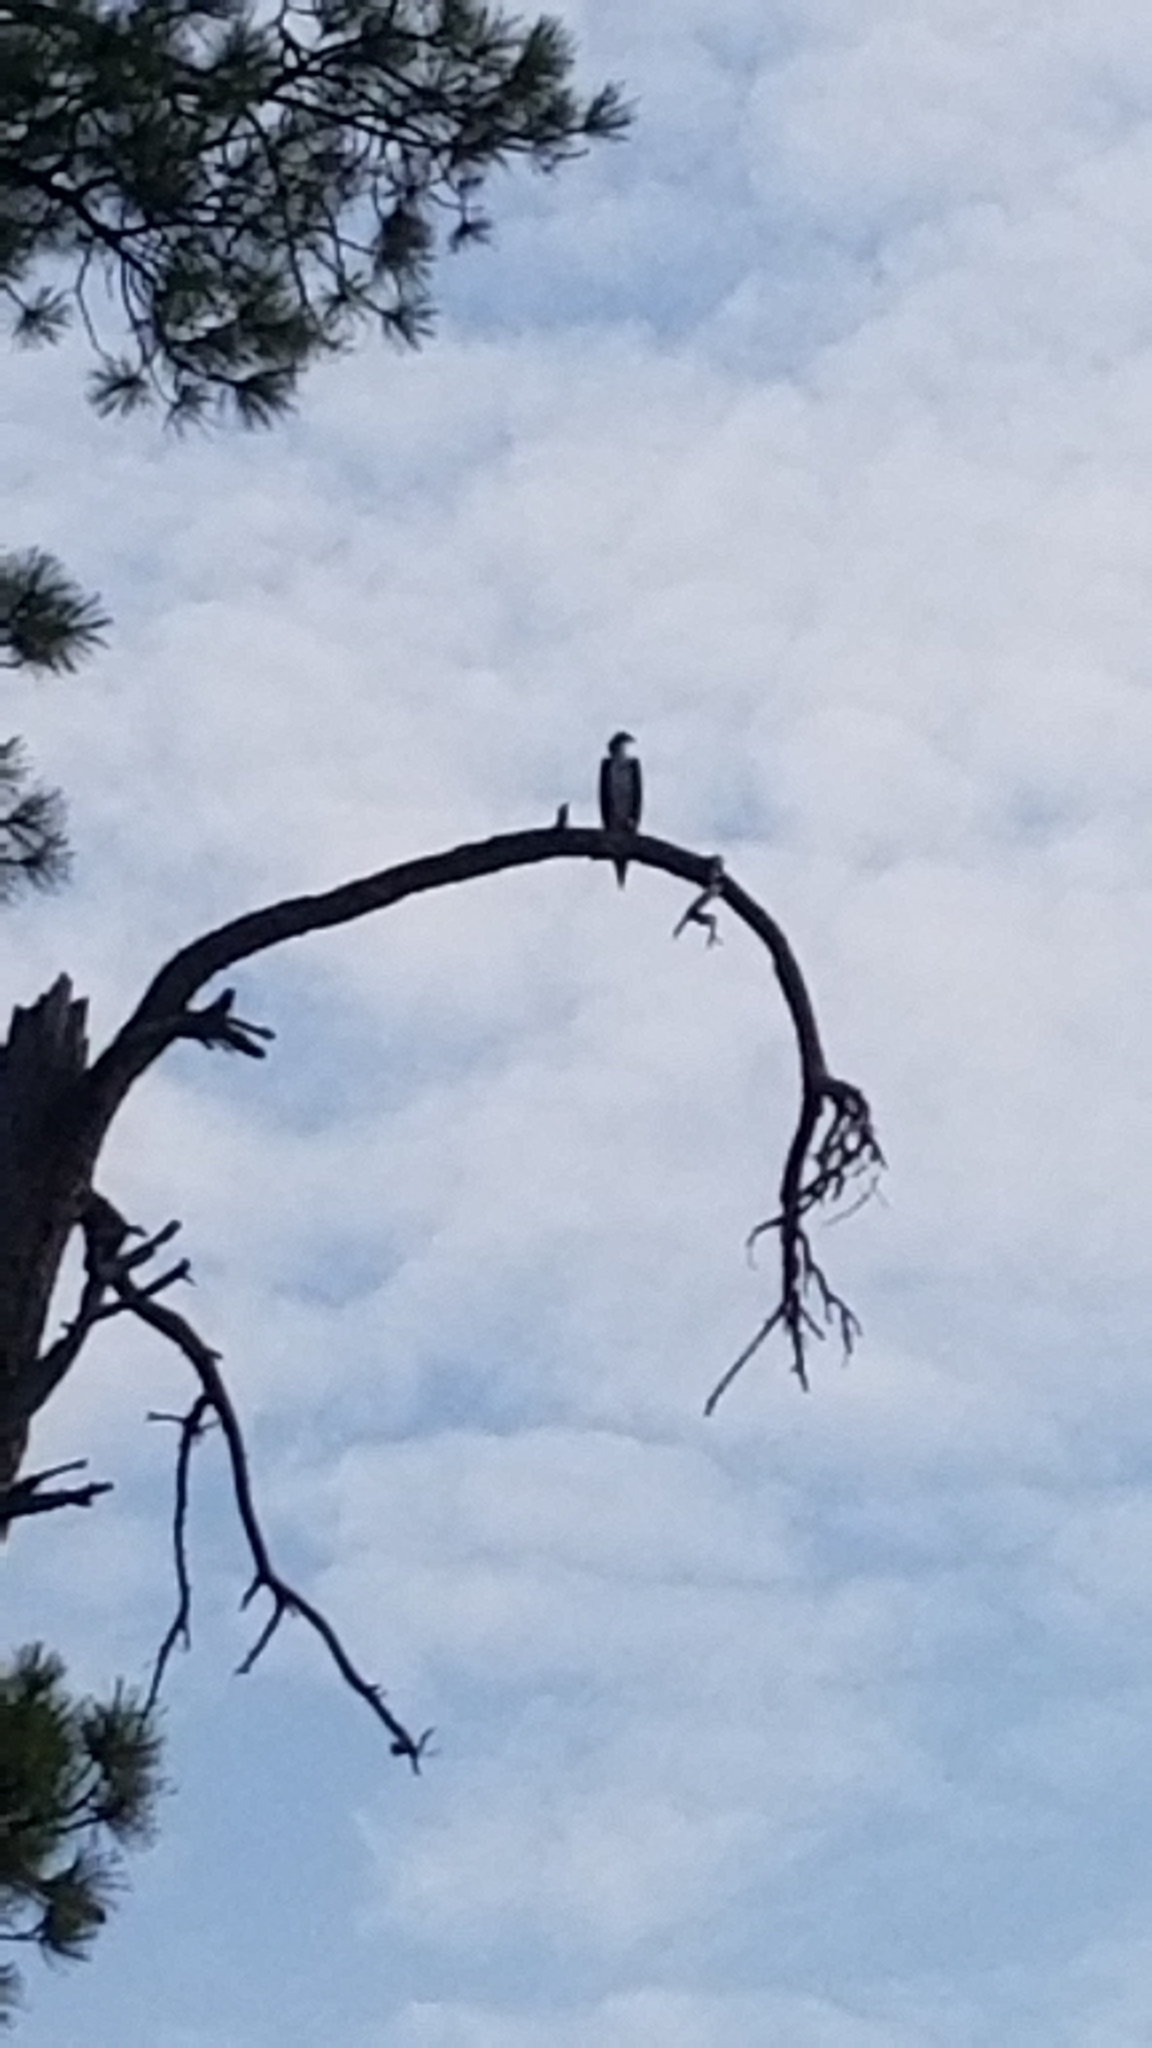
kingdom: Animalia
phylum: Chordata
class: Aves
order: Accipitriformes
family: Pandionidae
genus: Pandion
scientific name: Pandion haliaetus
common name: Osprey
